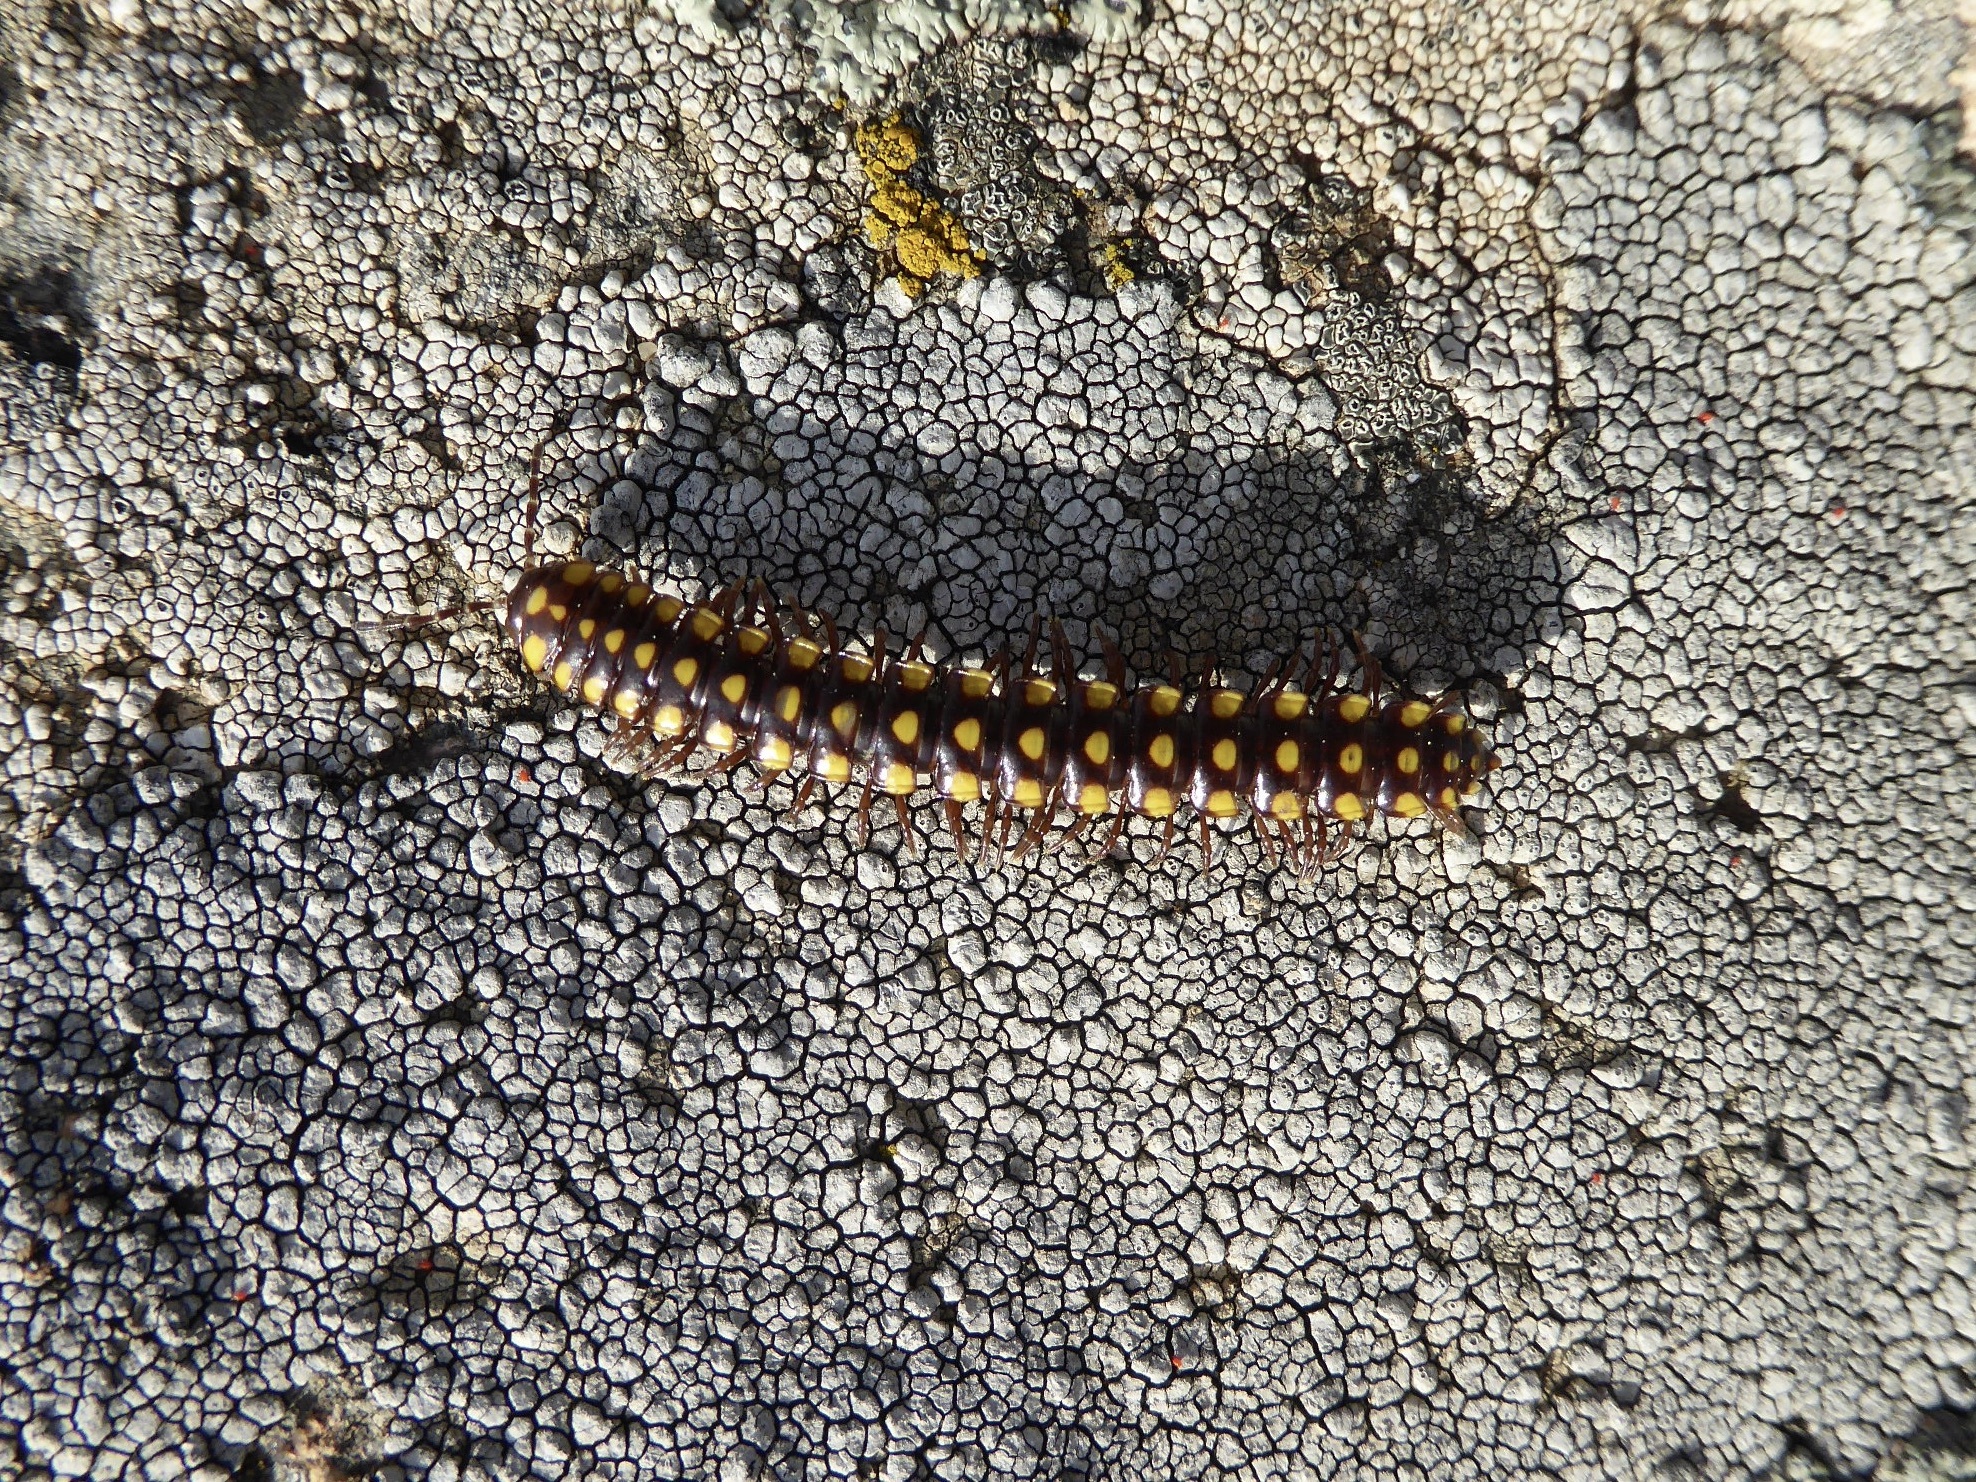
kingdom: Animalia
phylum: Arthropoda
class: Diplopoda
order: Polydesmida
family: Xystodesmidae
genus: Melaphe
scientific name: Melaphe vestita
